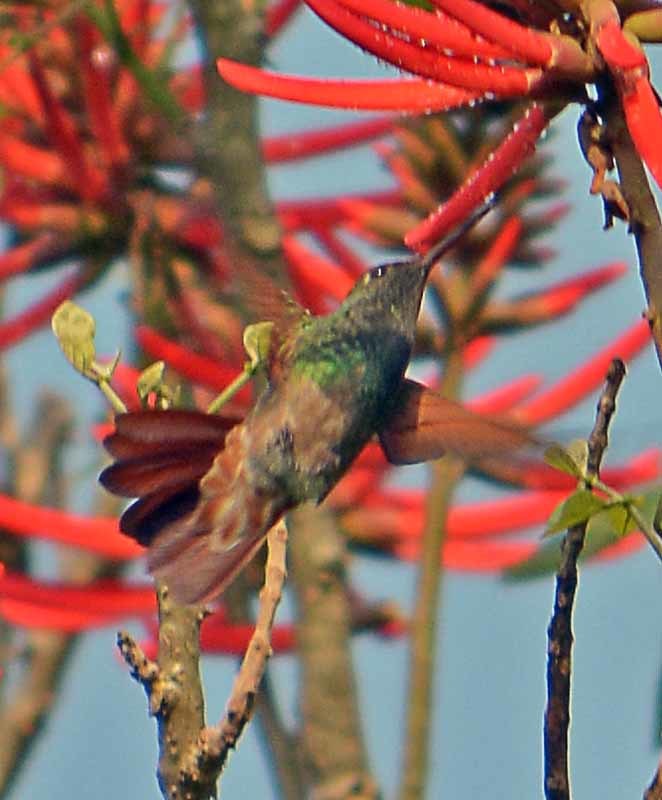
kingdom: Animalia
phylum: Chordata
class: Aves
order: Apodiformes
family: Trochilidae
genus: Saucerottia
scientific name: Saucerottia beryllina
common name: Berylline hummingbird
